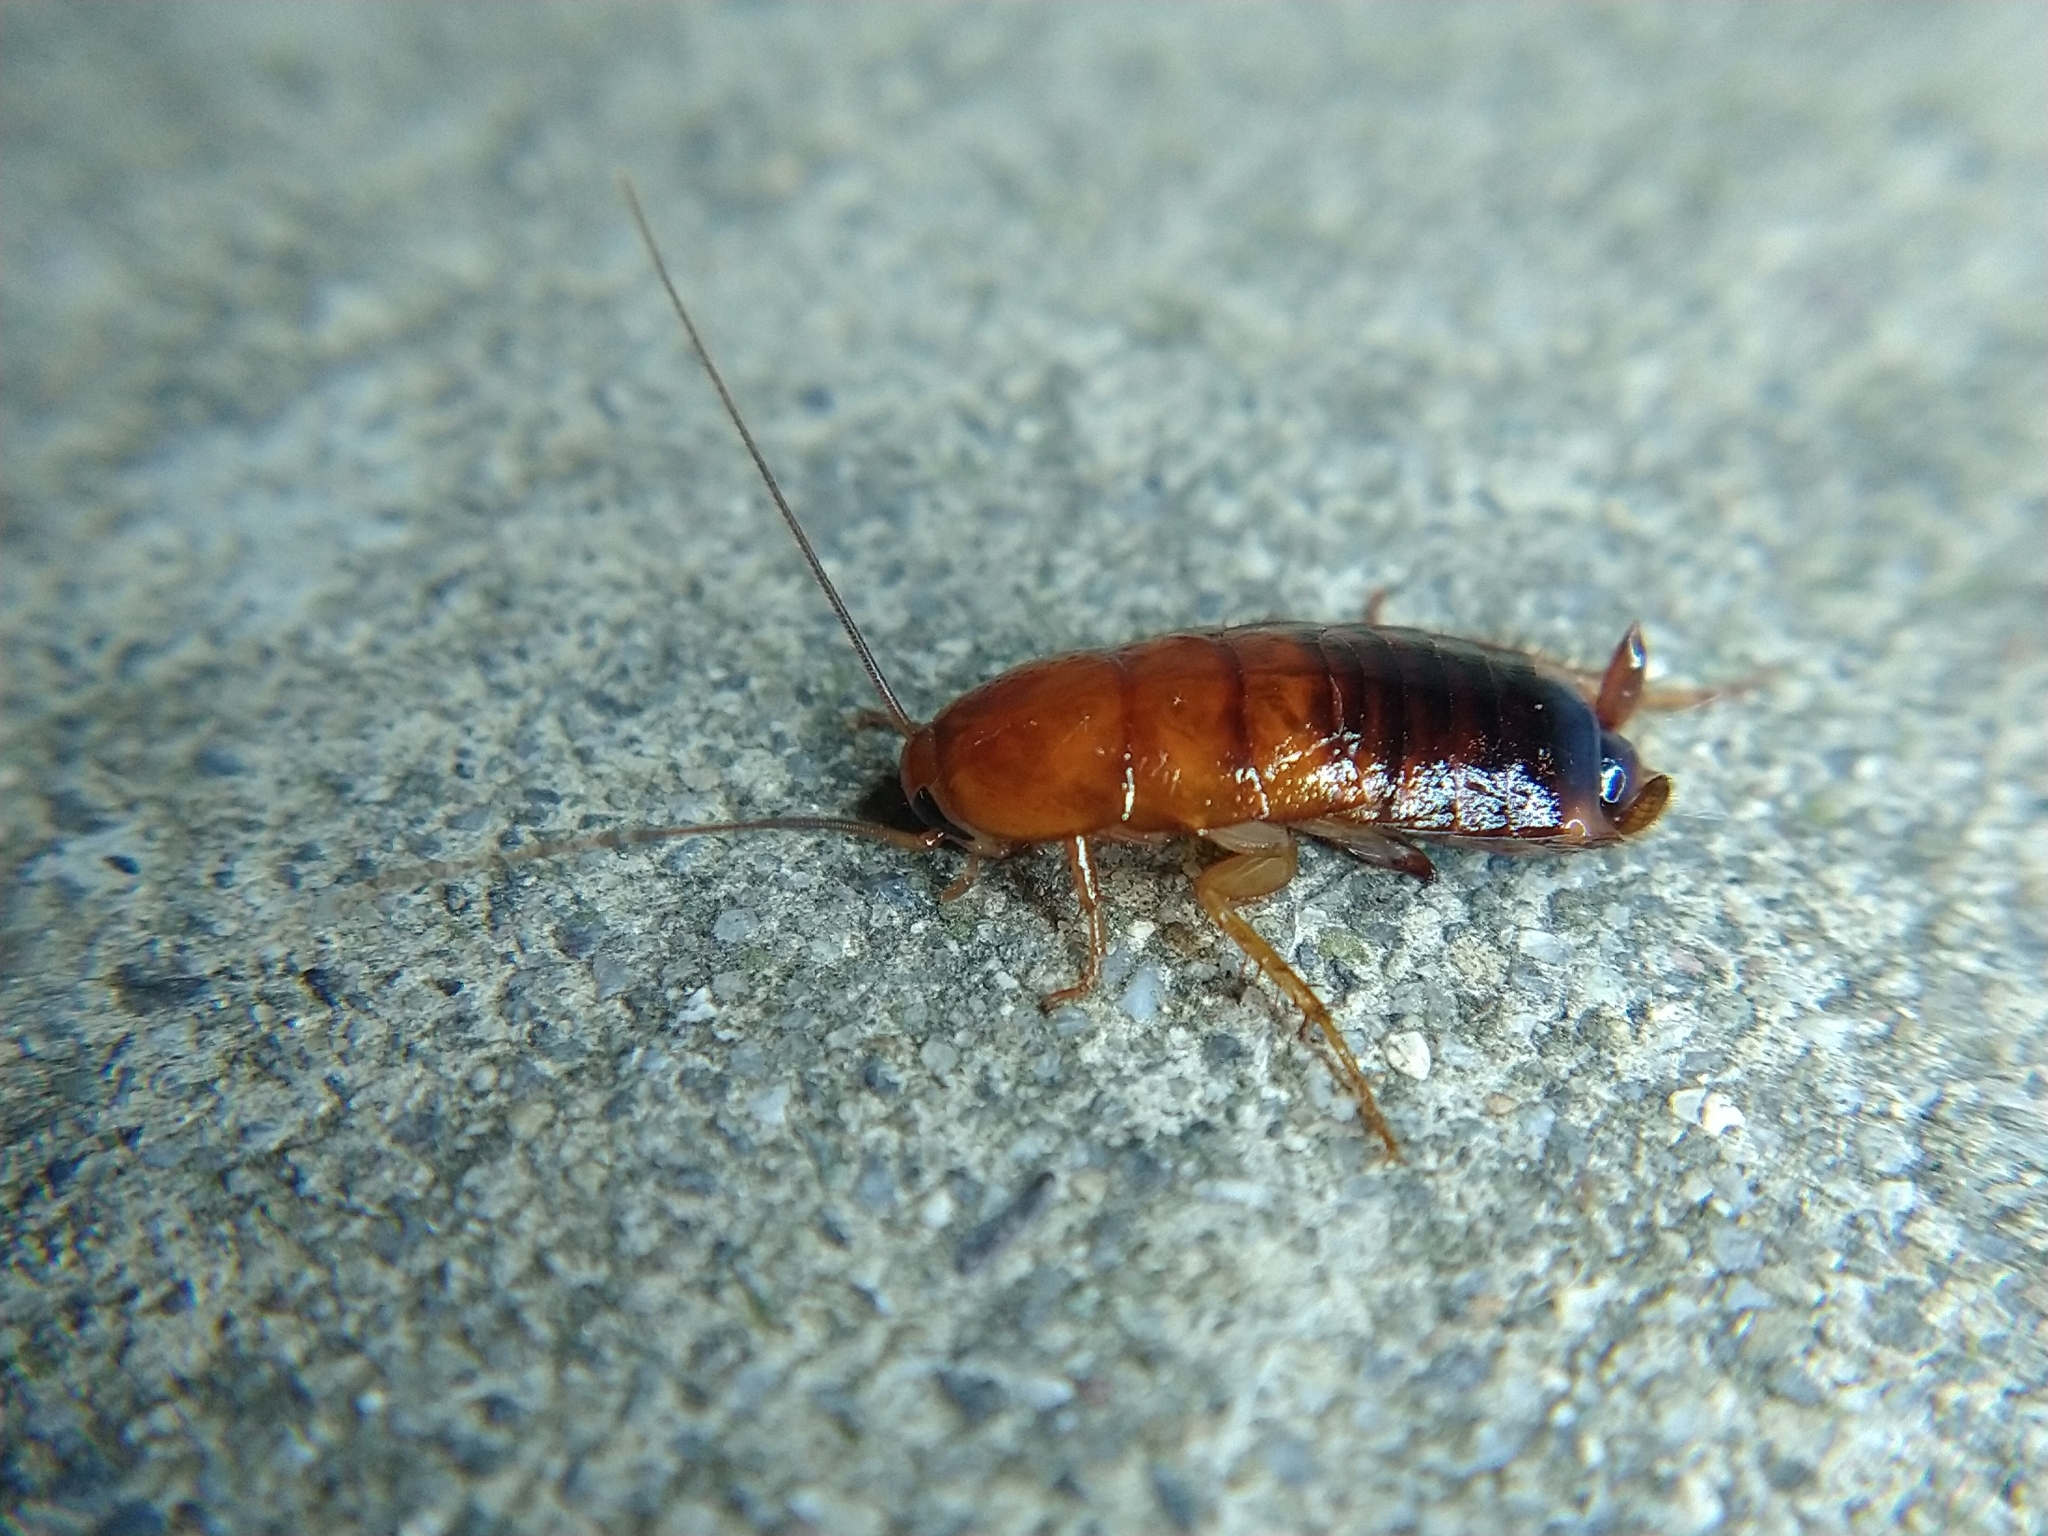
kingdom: Animalia
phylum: Arthropoda
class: Insecta
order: Blattodea
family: Blattidae
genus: Periplaneta
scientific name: Periplaneta lateralis
